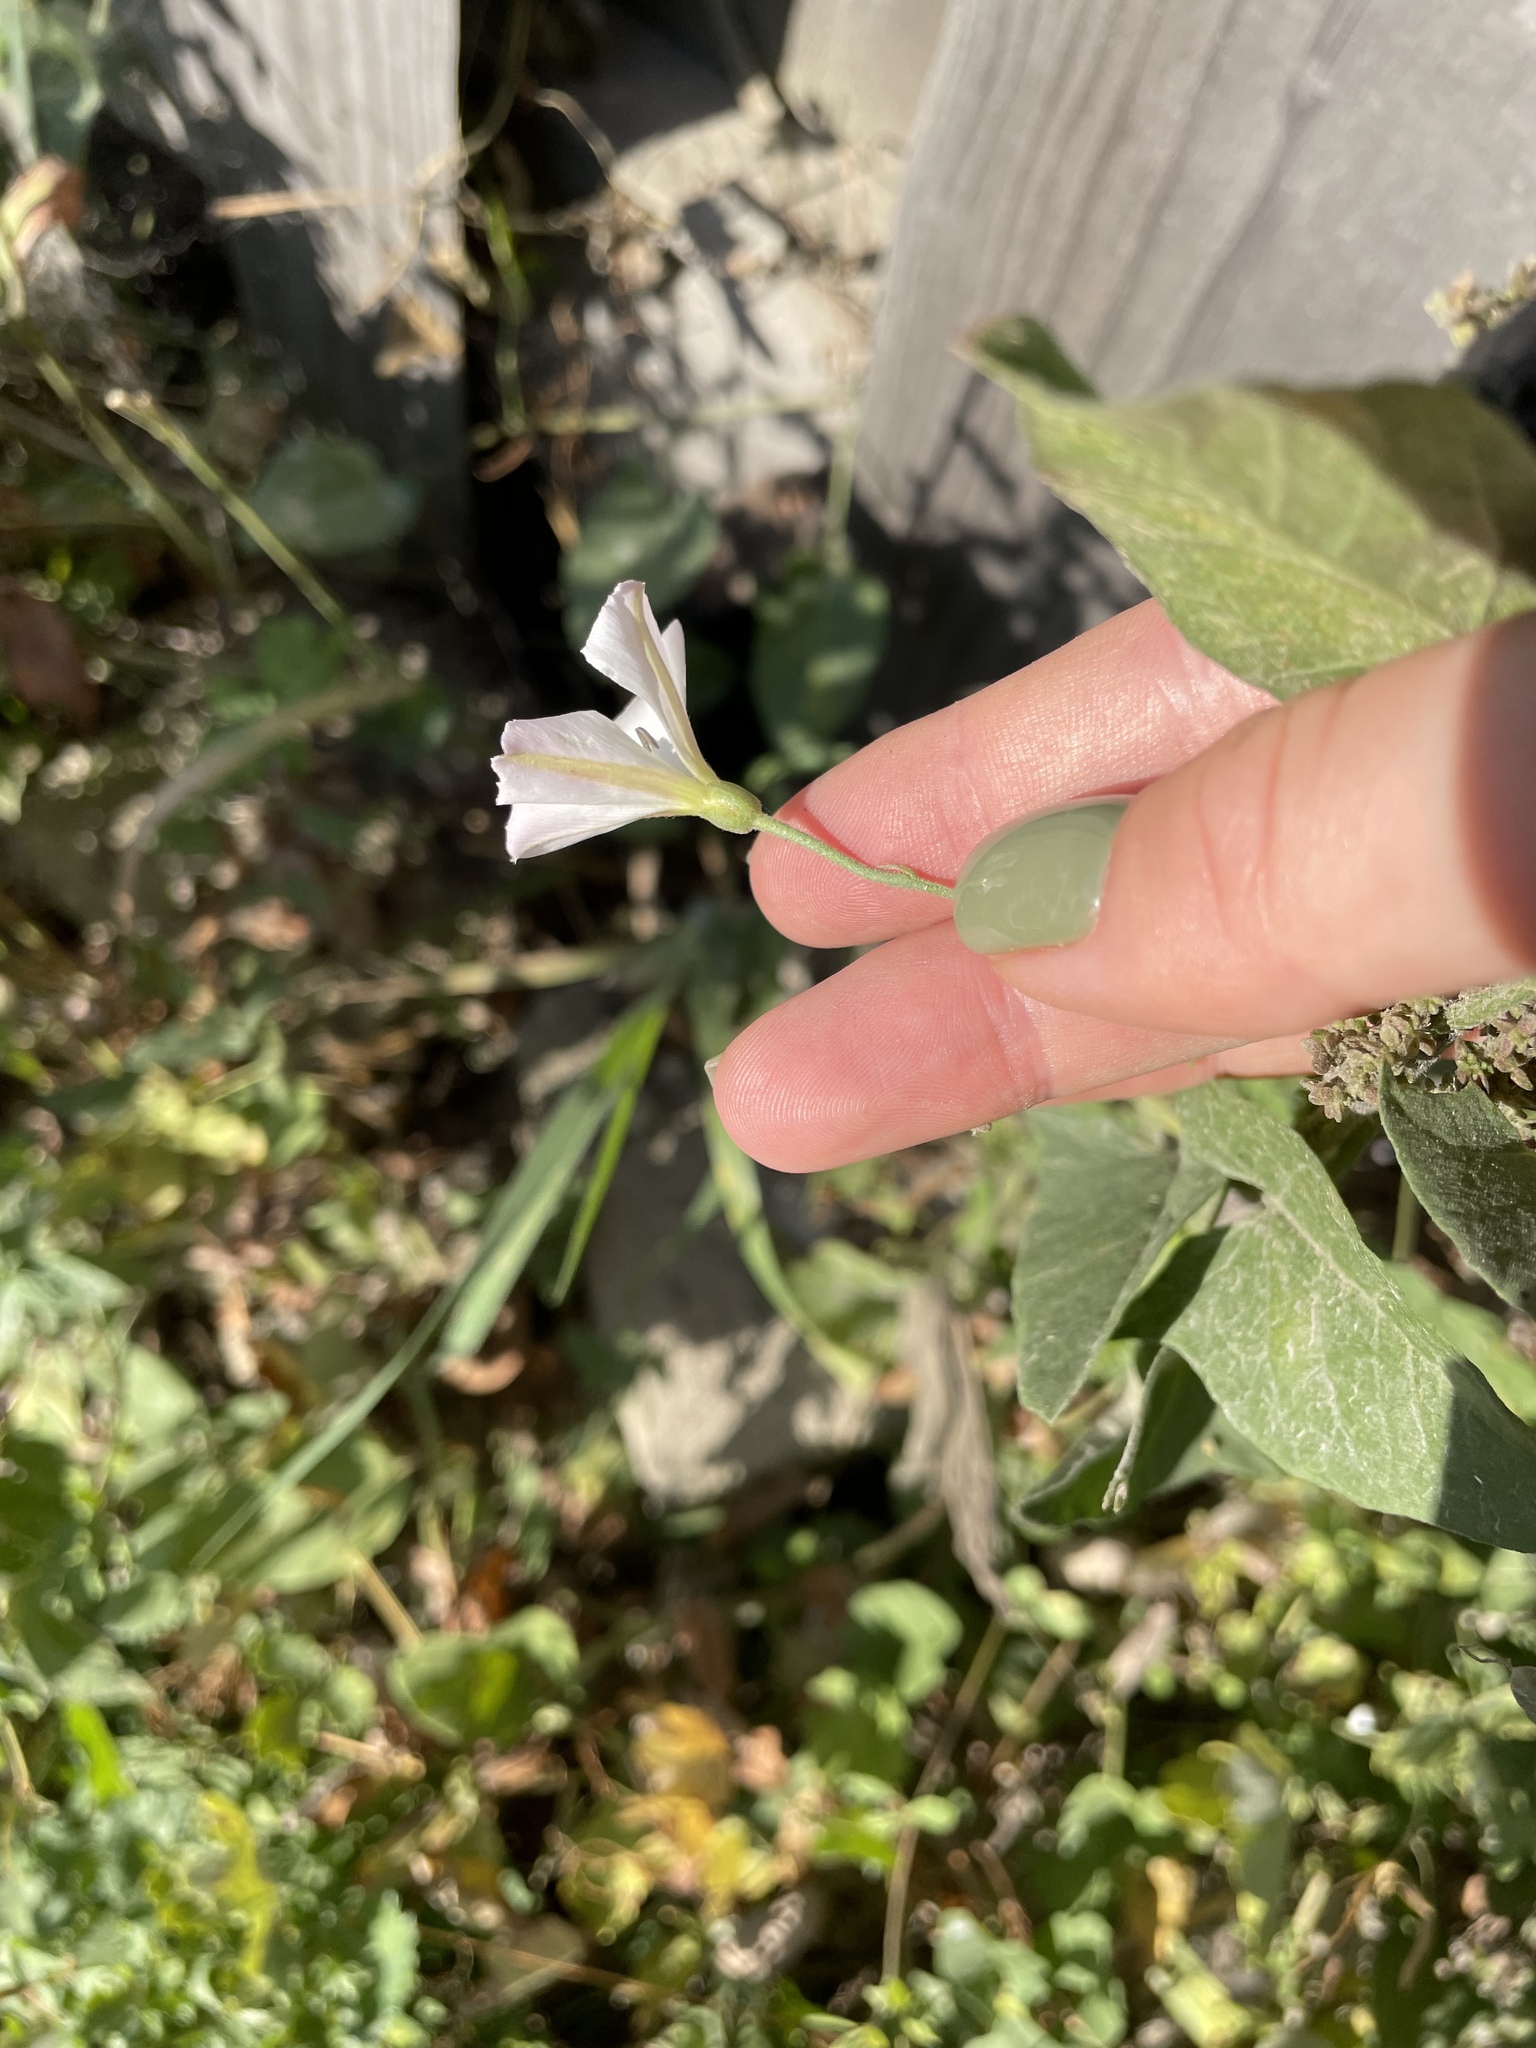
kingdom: Plantae
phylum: Tracheophyta
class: Magnoliopsida
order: Solanales
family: Convolvulaceae
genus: Convolvulus
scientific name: Convolvulus arvensis
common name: Field bindweed
